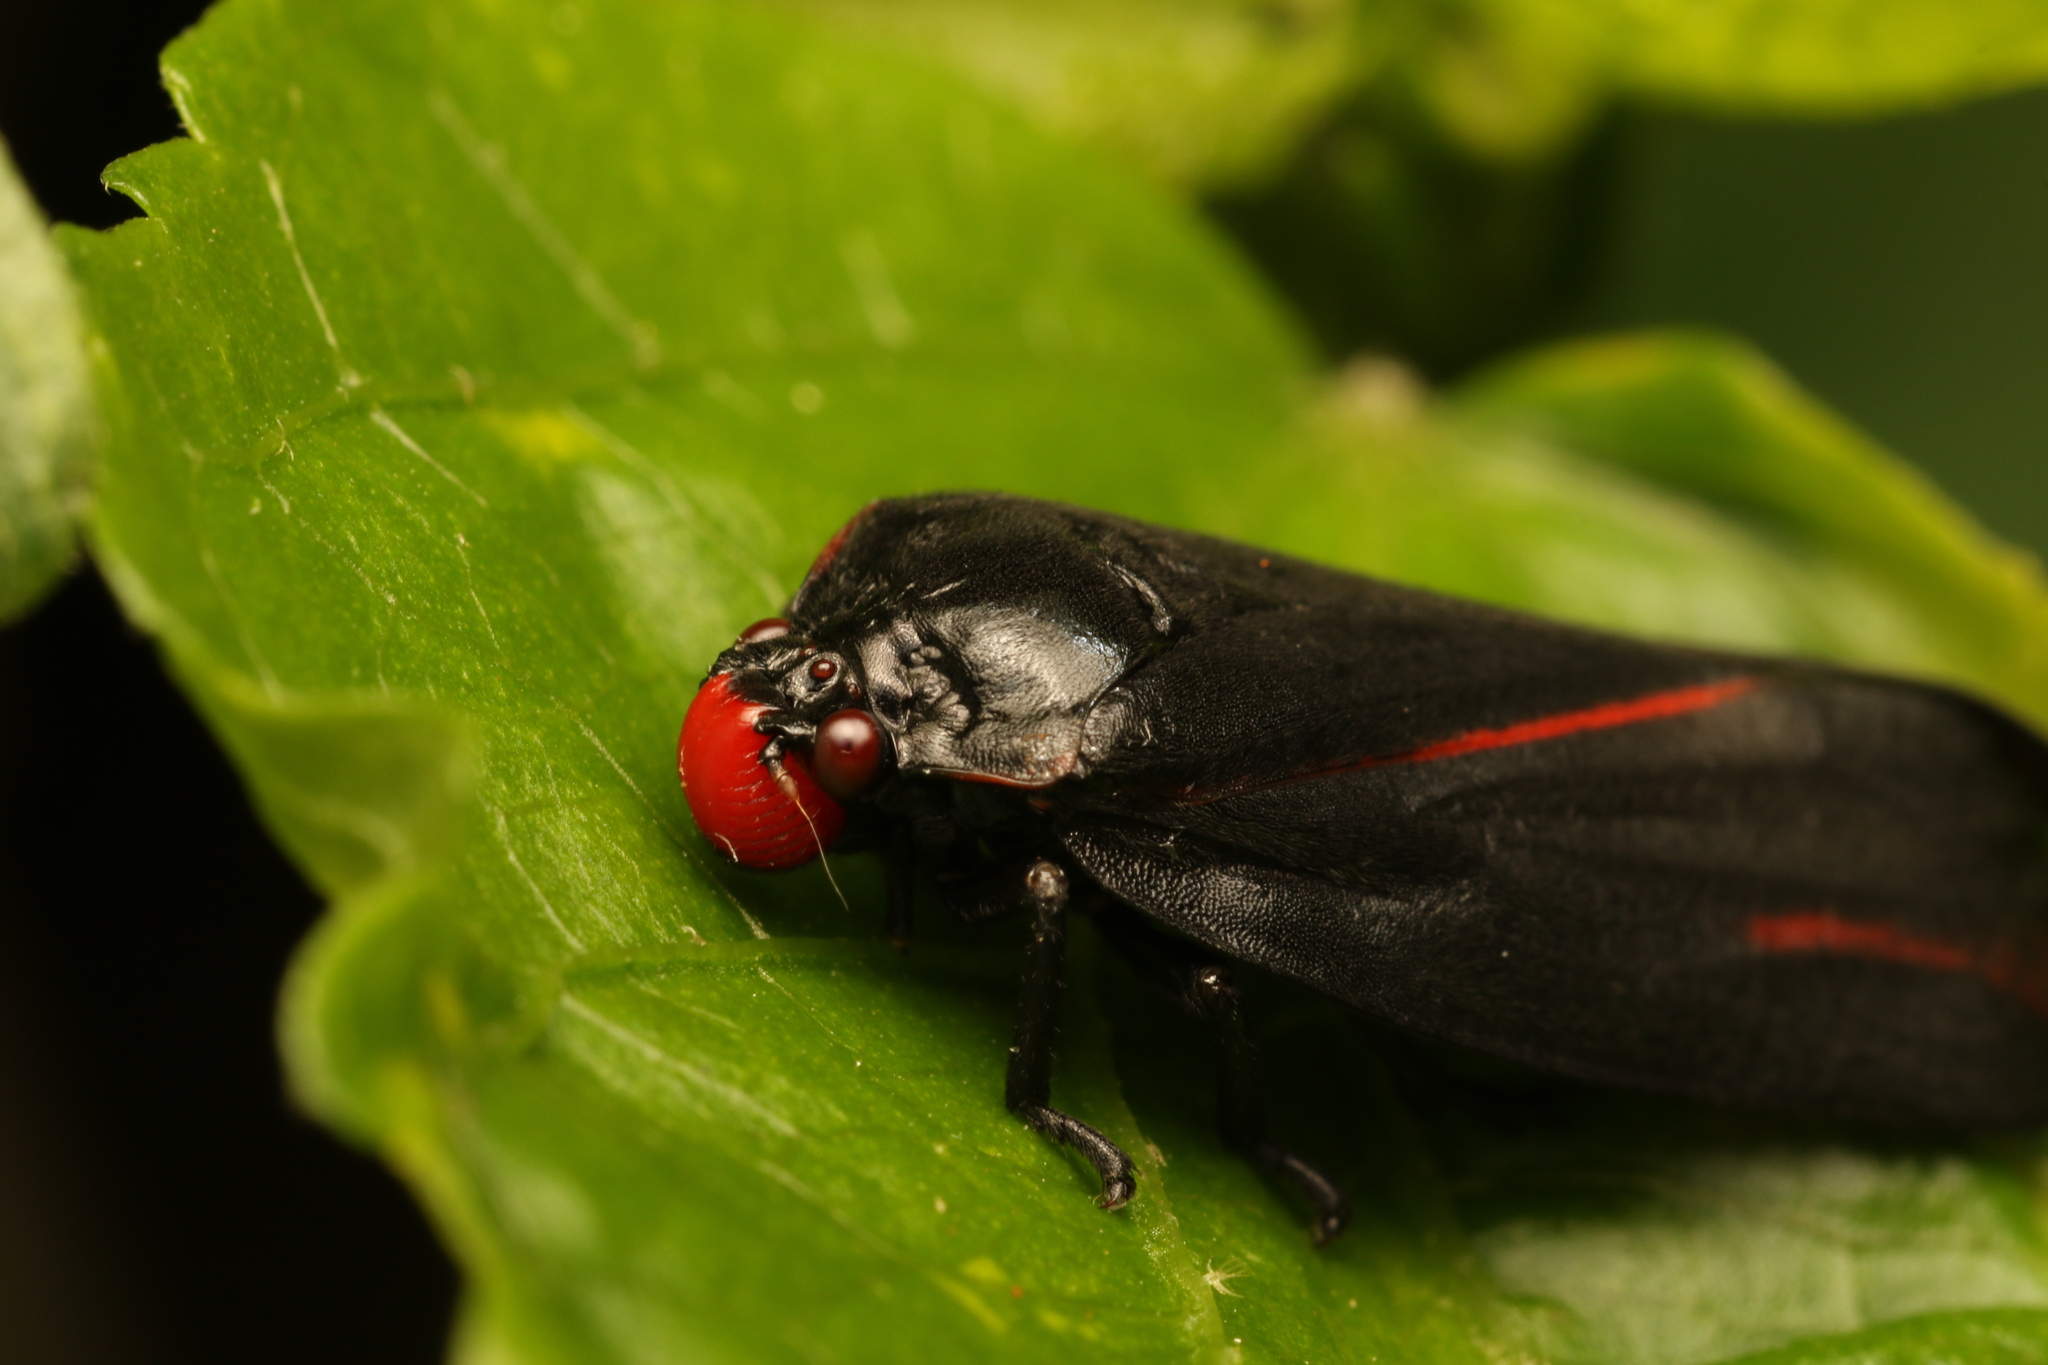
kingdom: Animalia
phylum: Arthropoda
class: Insecta
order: Hemiptera
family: Cercopidae
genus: Tomaspis
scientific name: Tomaspis furcata
